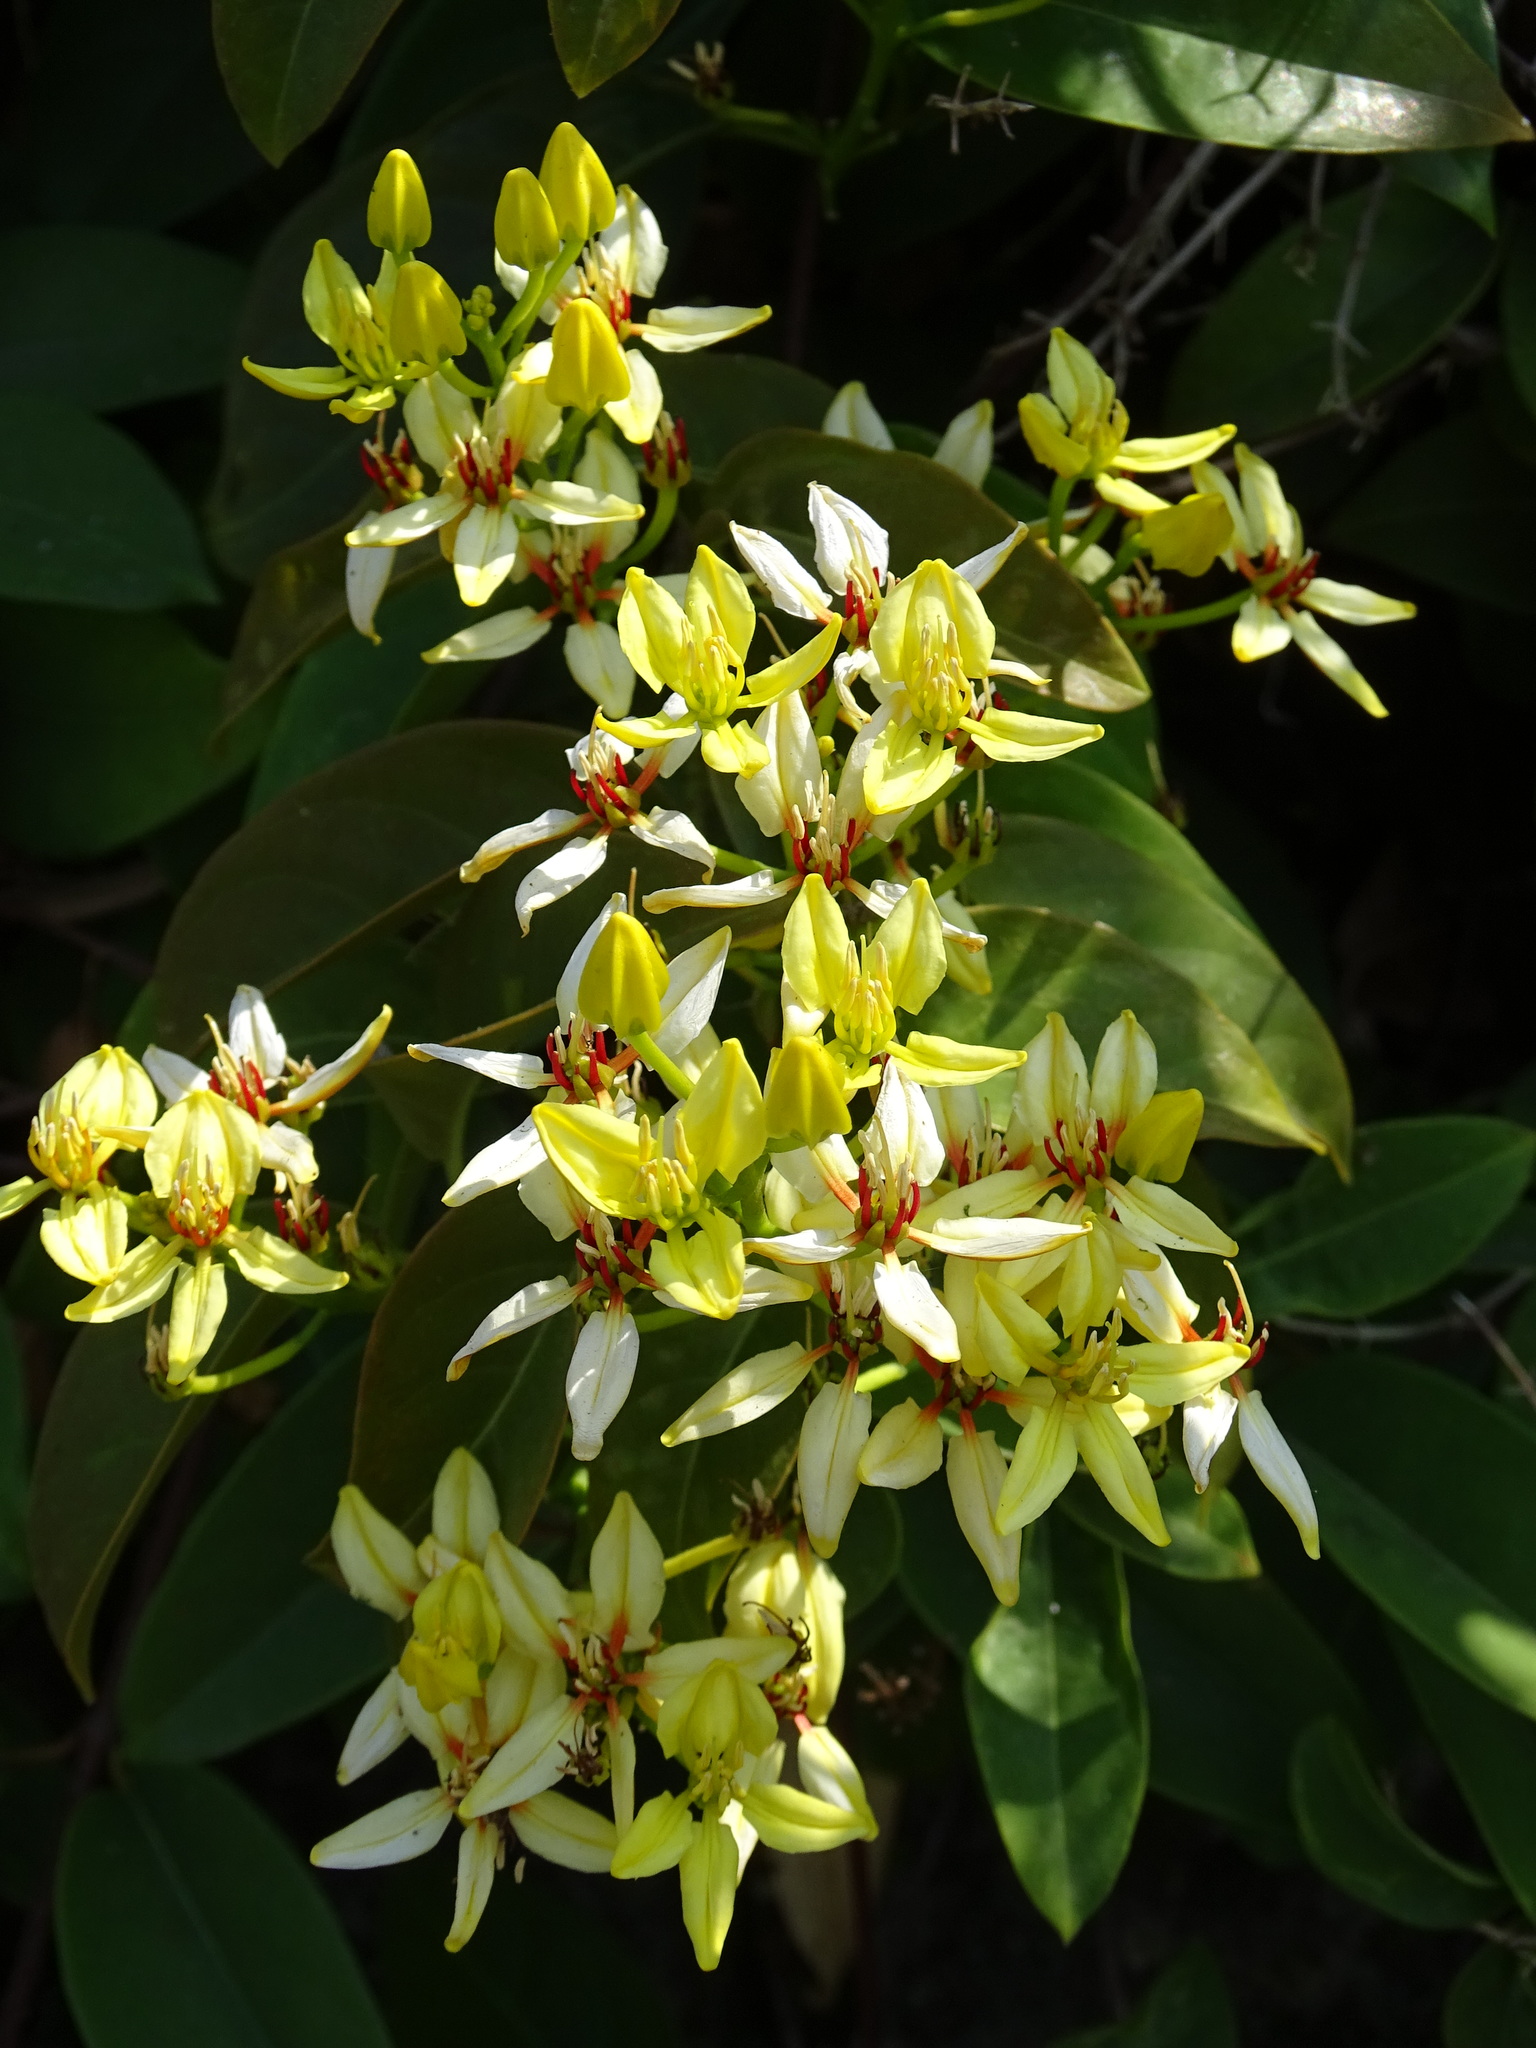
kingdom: Plantae
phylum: Tracheophyta
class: Magnoliopsida
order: Malpighiales
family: Malpighiaceae
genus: Tristellateia
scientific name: Tristellateia australasiae
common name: Australian goldvine
